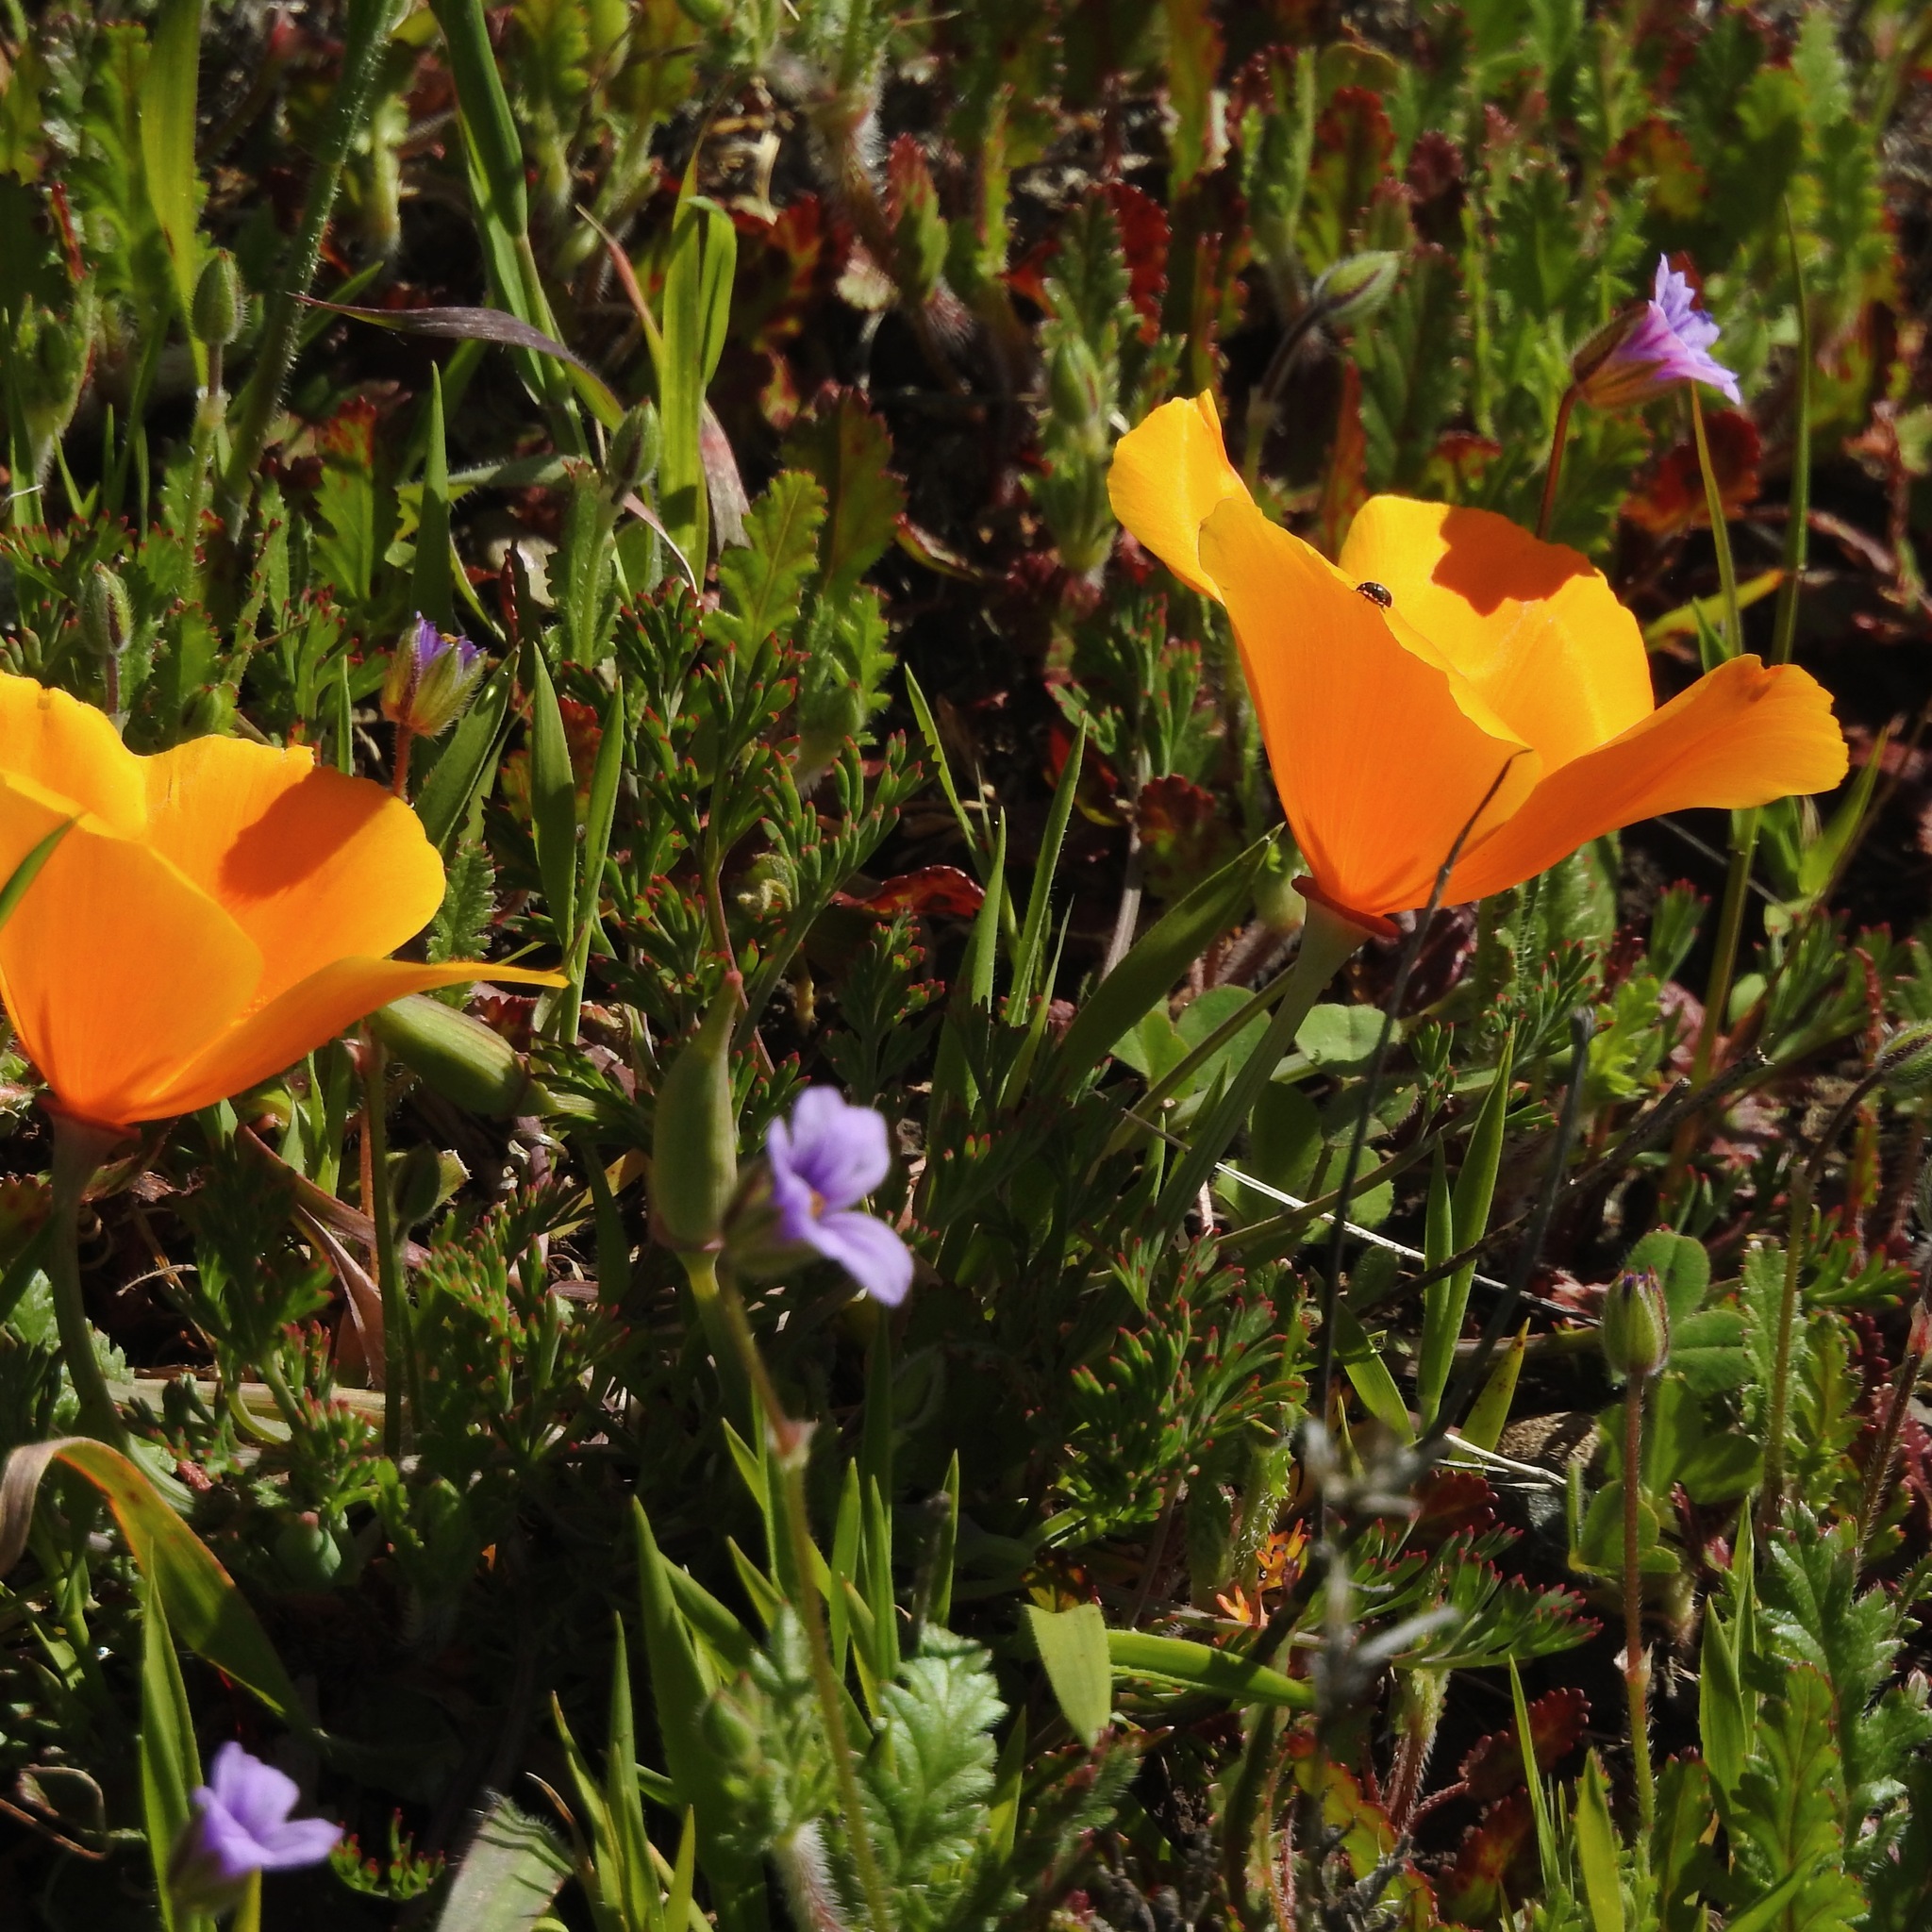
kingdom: Plantae
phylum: Tracheophyta
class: Magnoliopsida
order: Ranunculales
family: Papaveraceae
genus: Eschscholzia
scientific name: Eschscholzia californica
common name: California poppy
